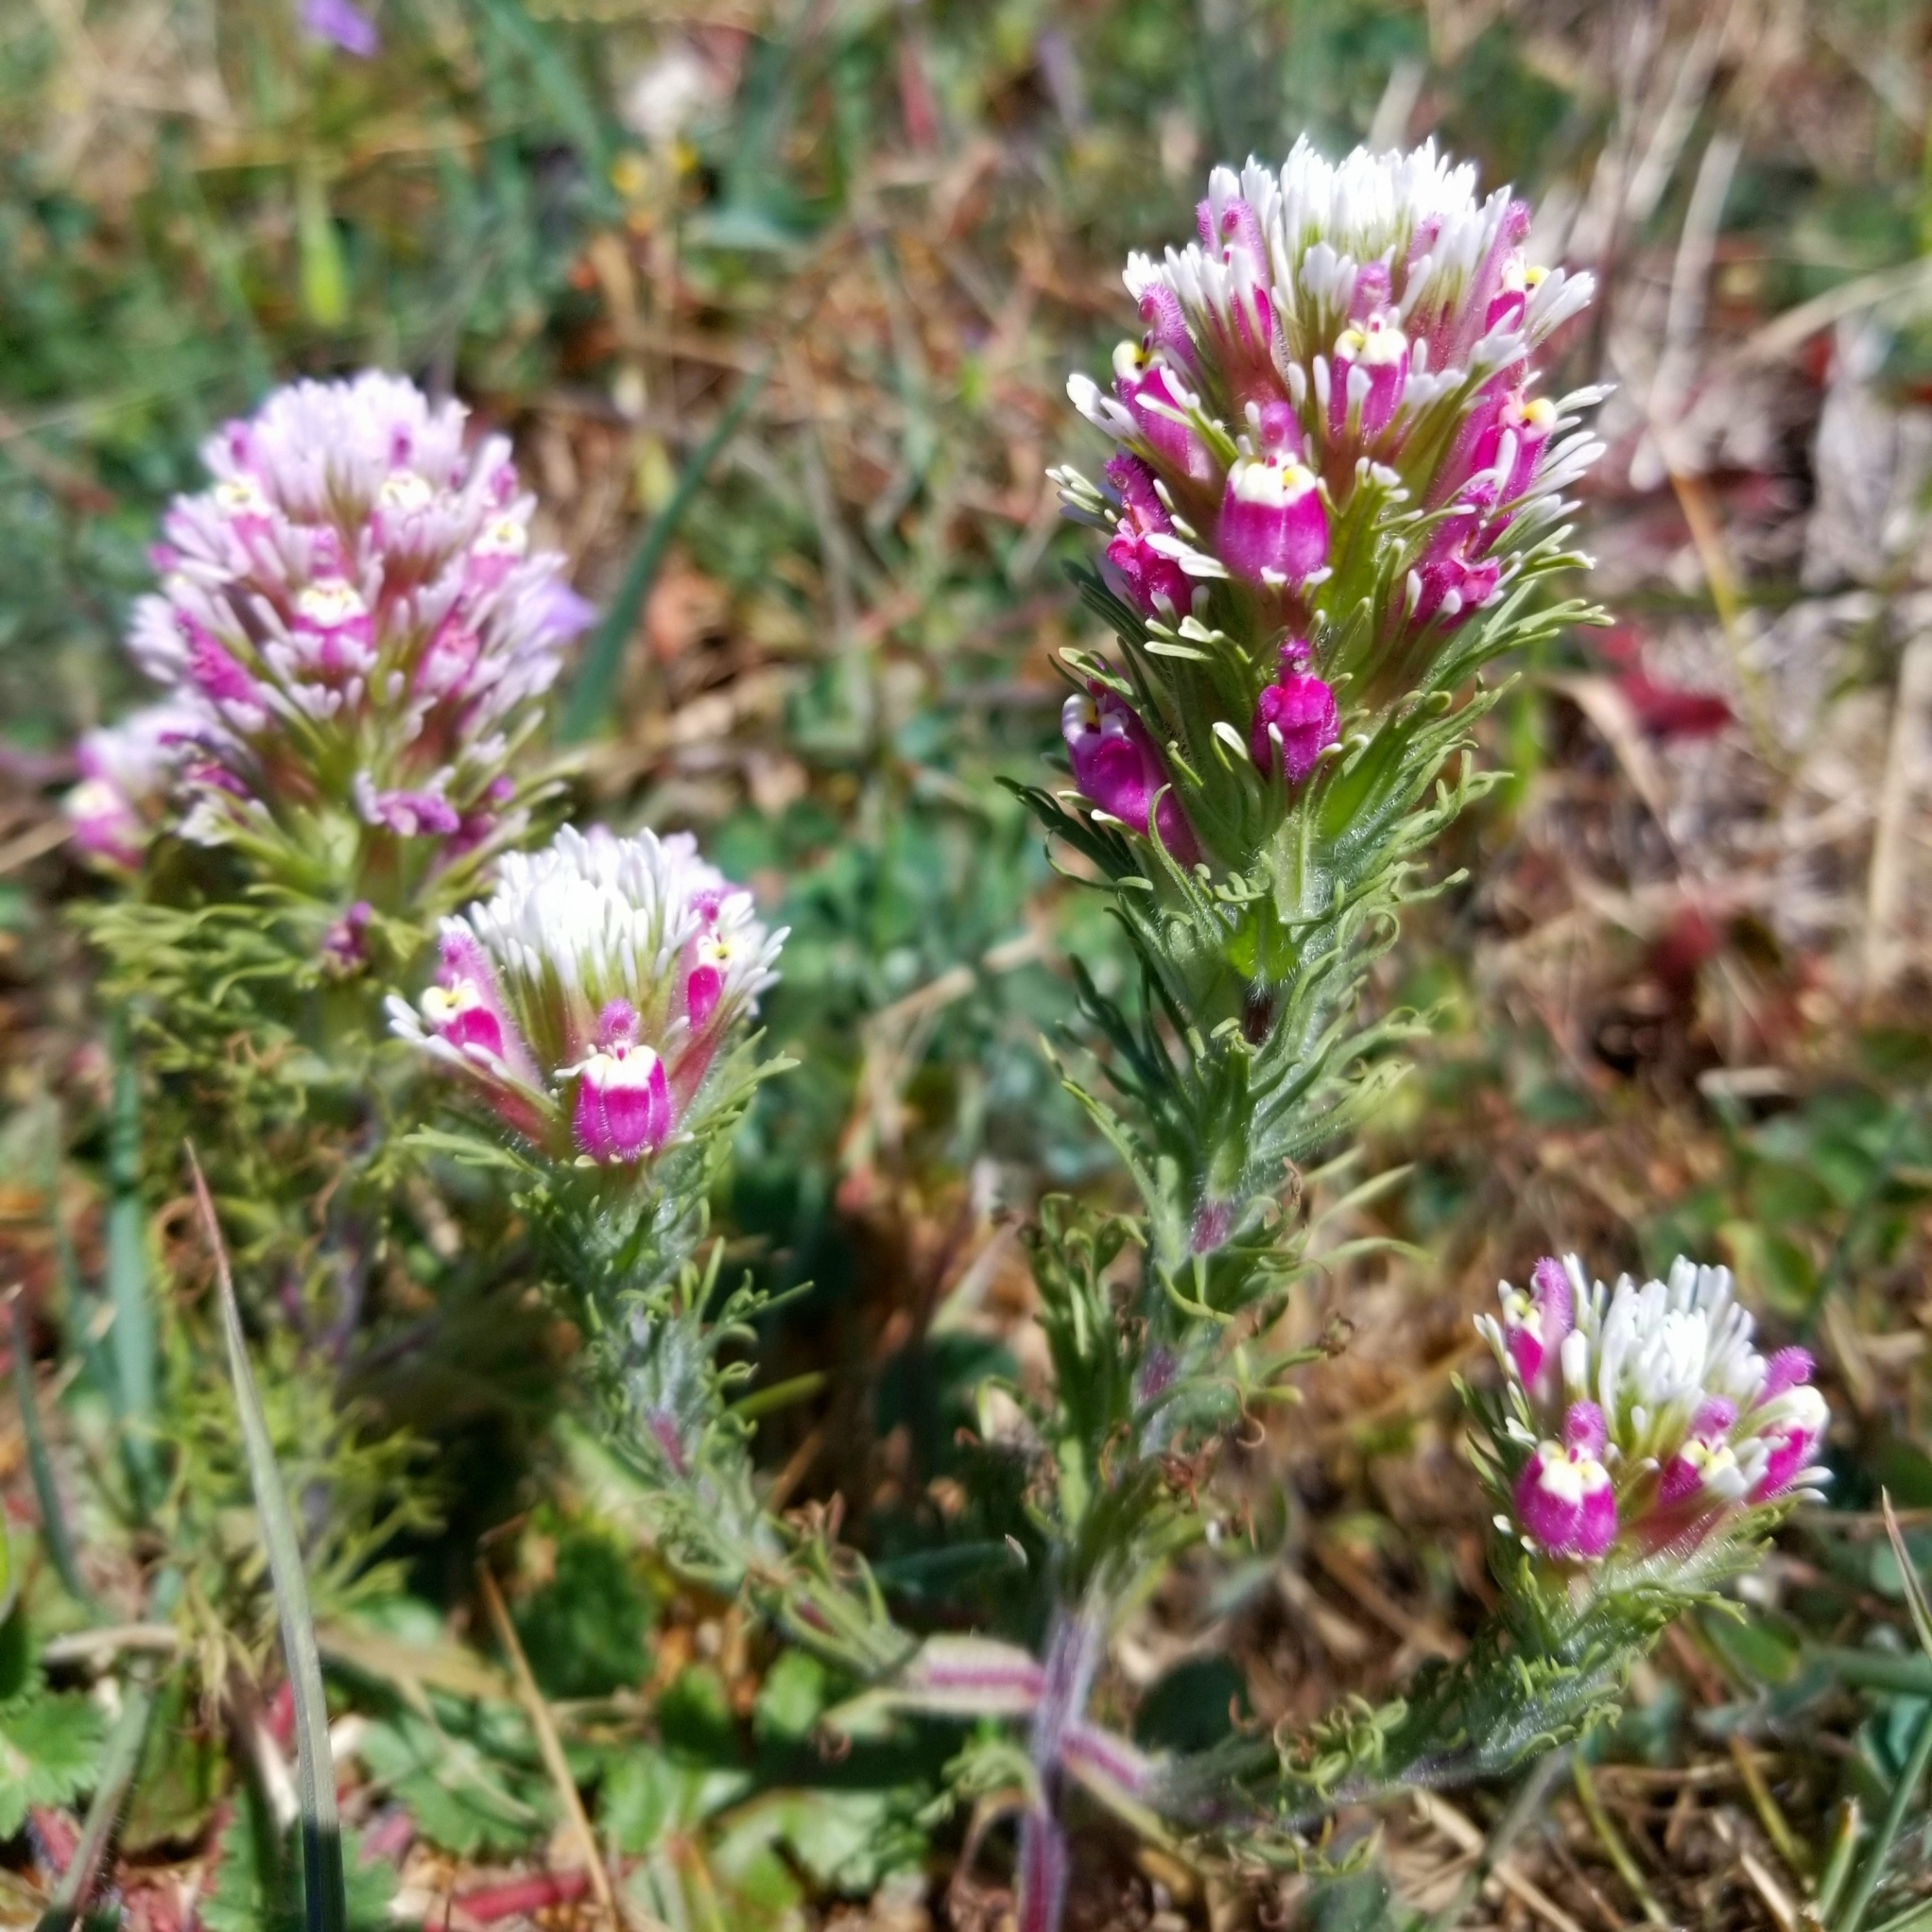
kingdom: Plantae
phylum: Tracheophyta
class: Magnoliopsida
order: Lamiales
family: Orobanchaceae
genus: Castilleja
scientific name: Castilleja exserta
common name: Purple owl-clover
